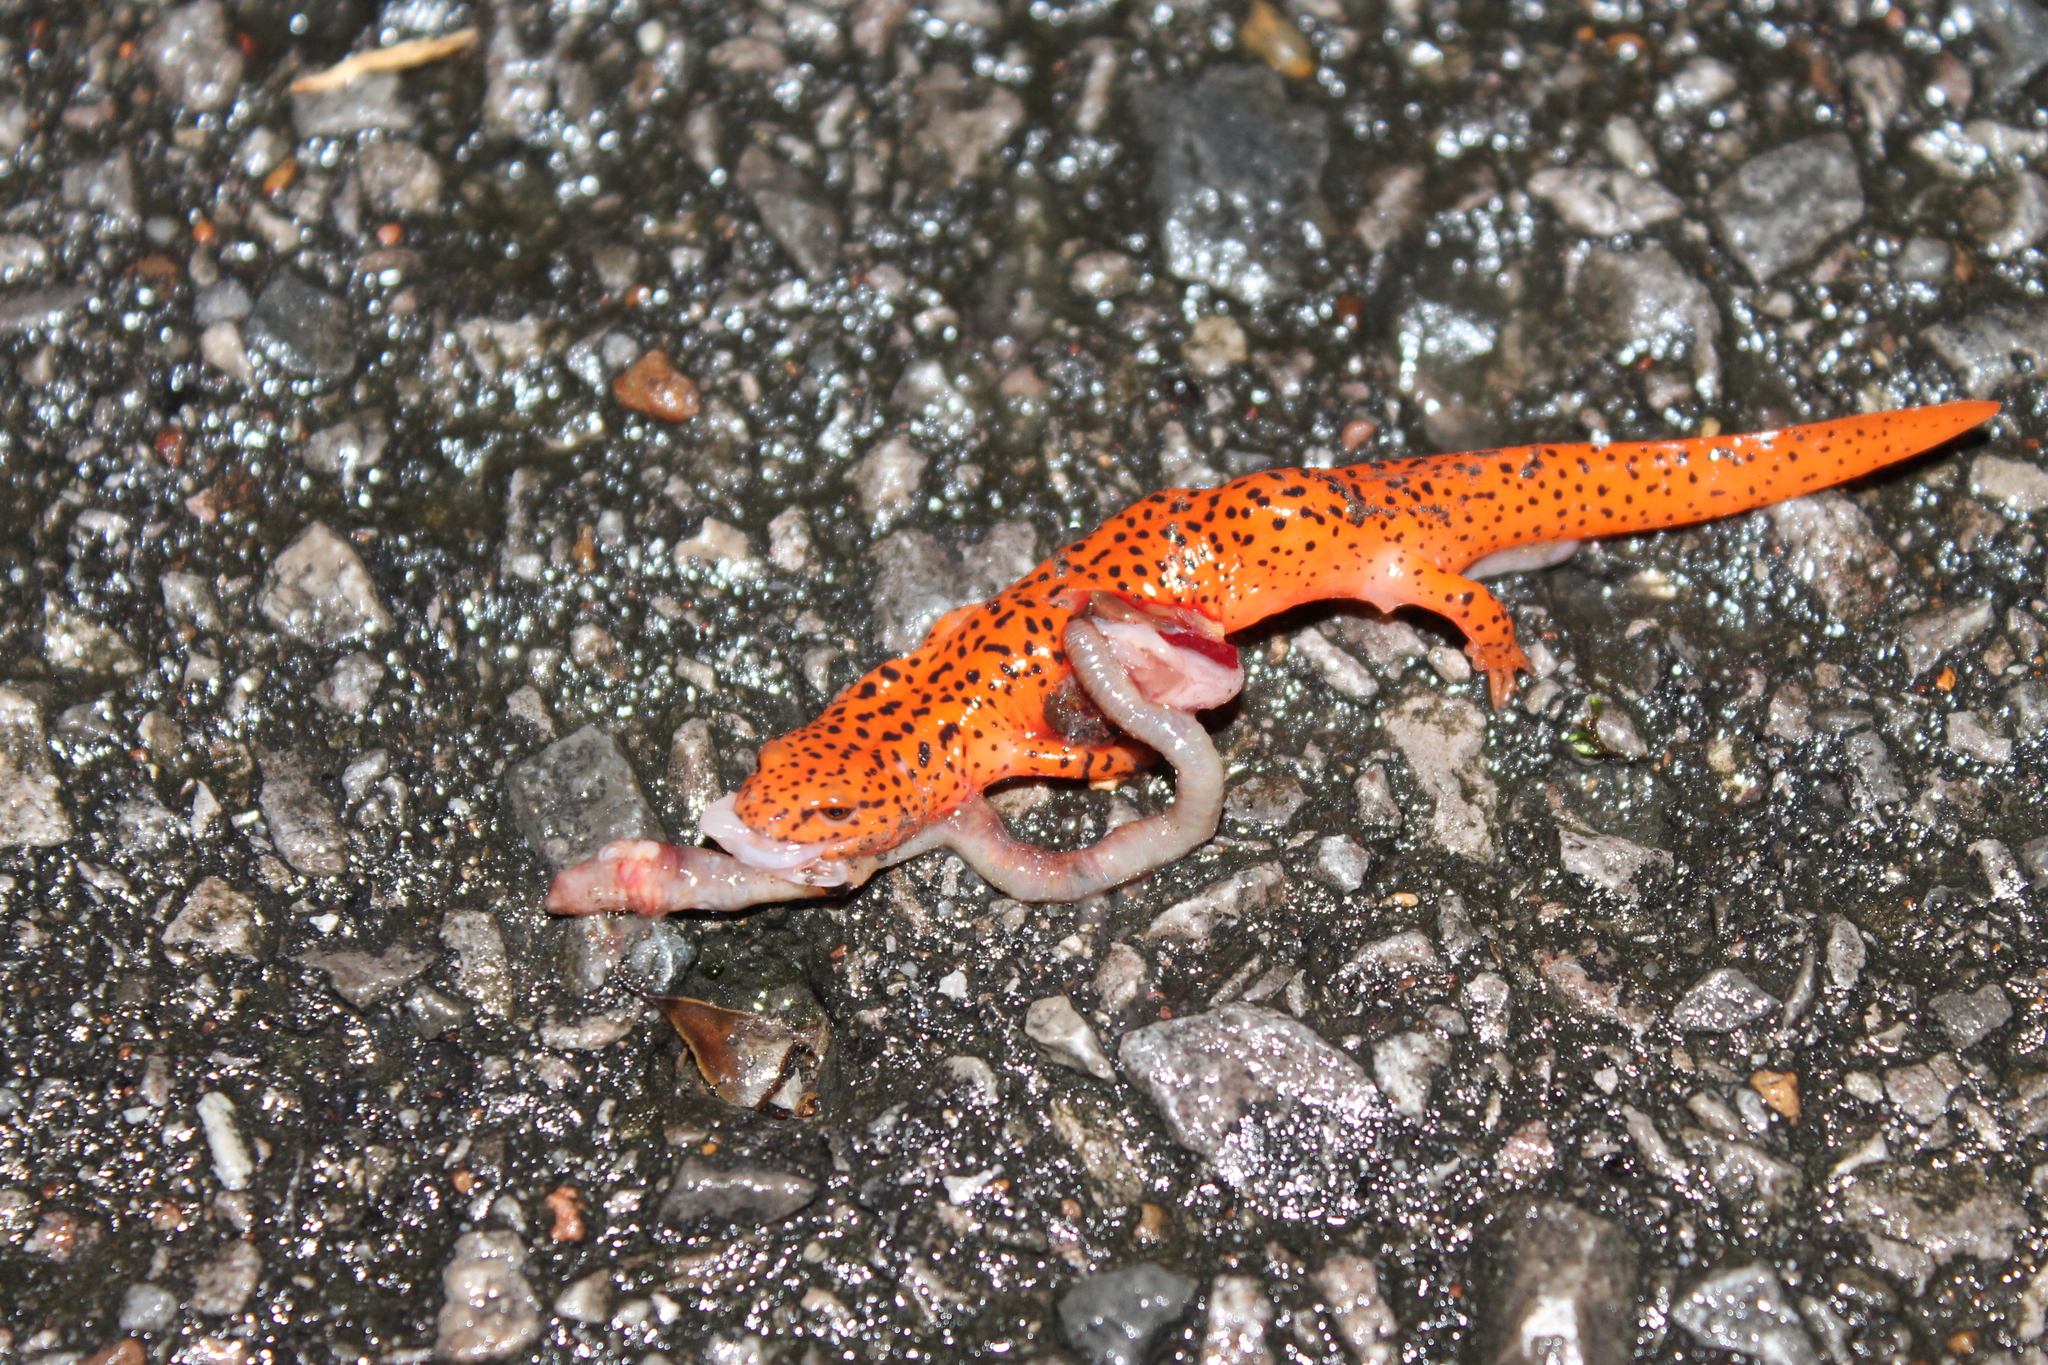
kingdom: Animalia
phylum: Chordata
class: Amphibia
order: Caudata
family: Plethodontidae
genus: Pseudotriton
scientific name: Pseudotriton ruber
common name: Red salamander
